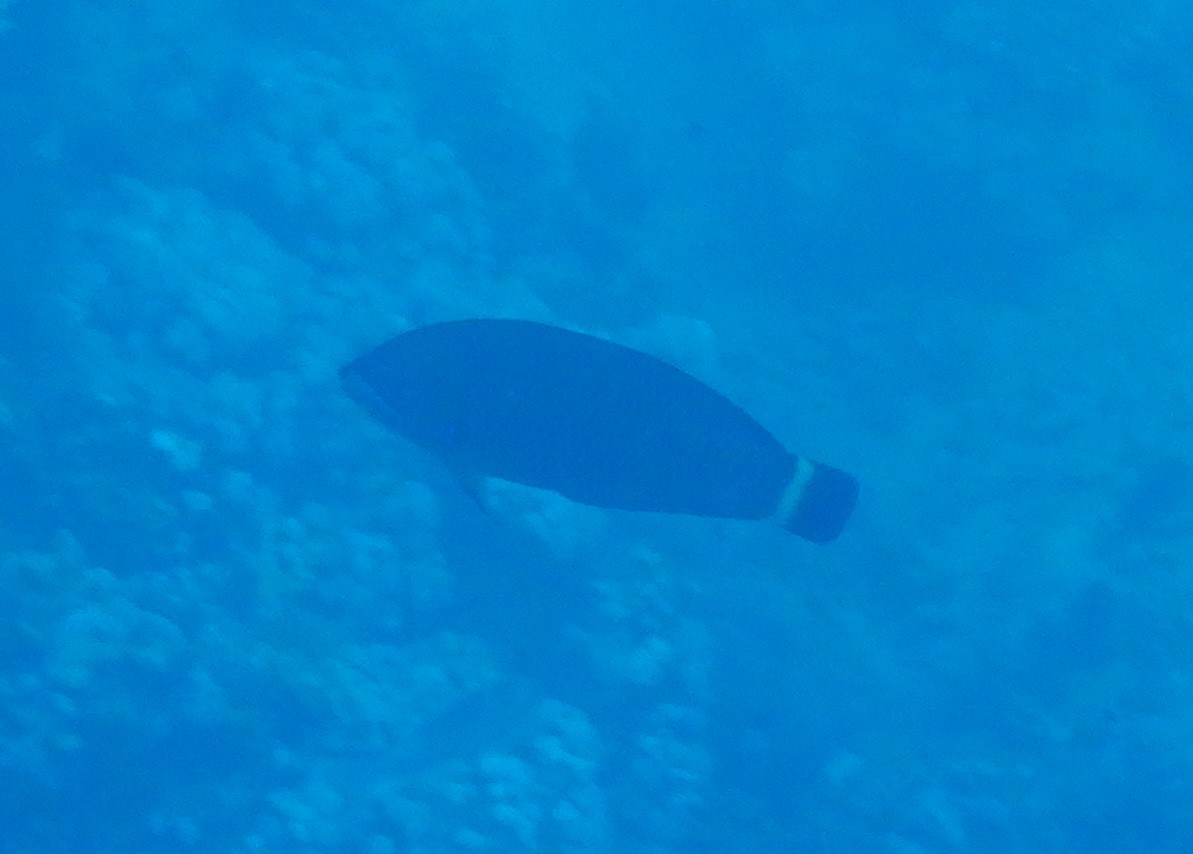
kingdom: Animalia
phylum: Chordata
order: Perciformes
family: Labridae
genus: Pseudodax
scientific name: Pseudodax moluccanus
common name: Chiseltooth wrasse
